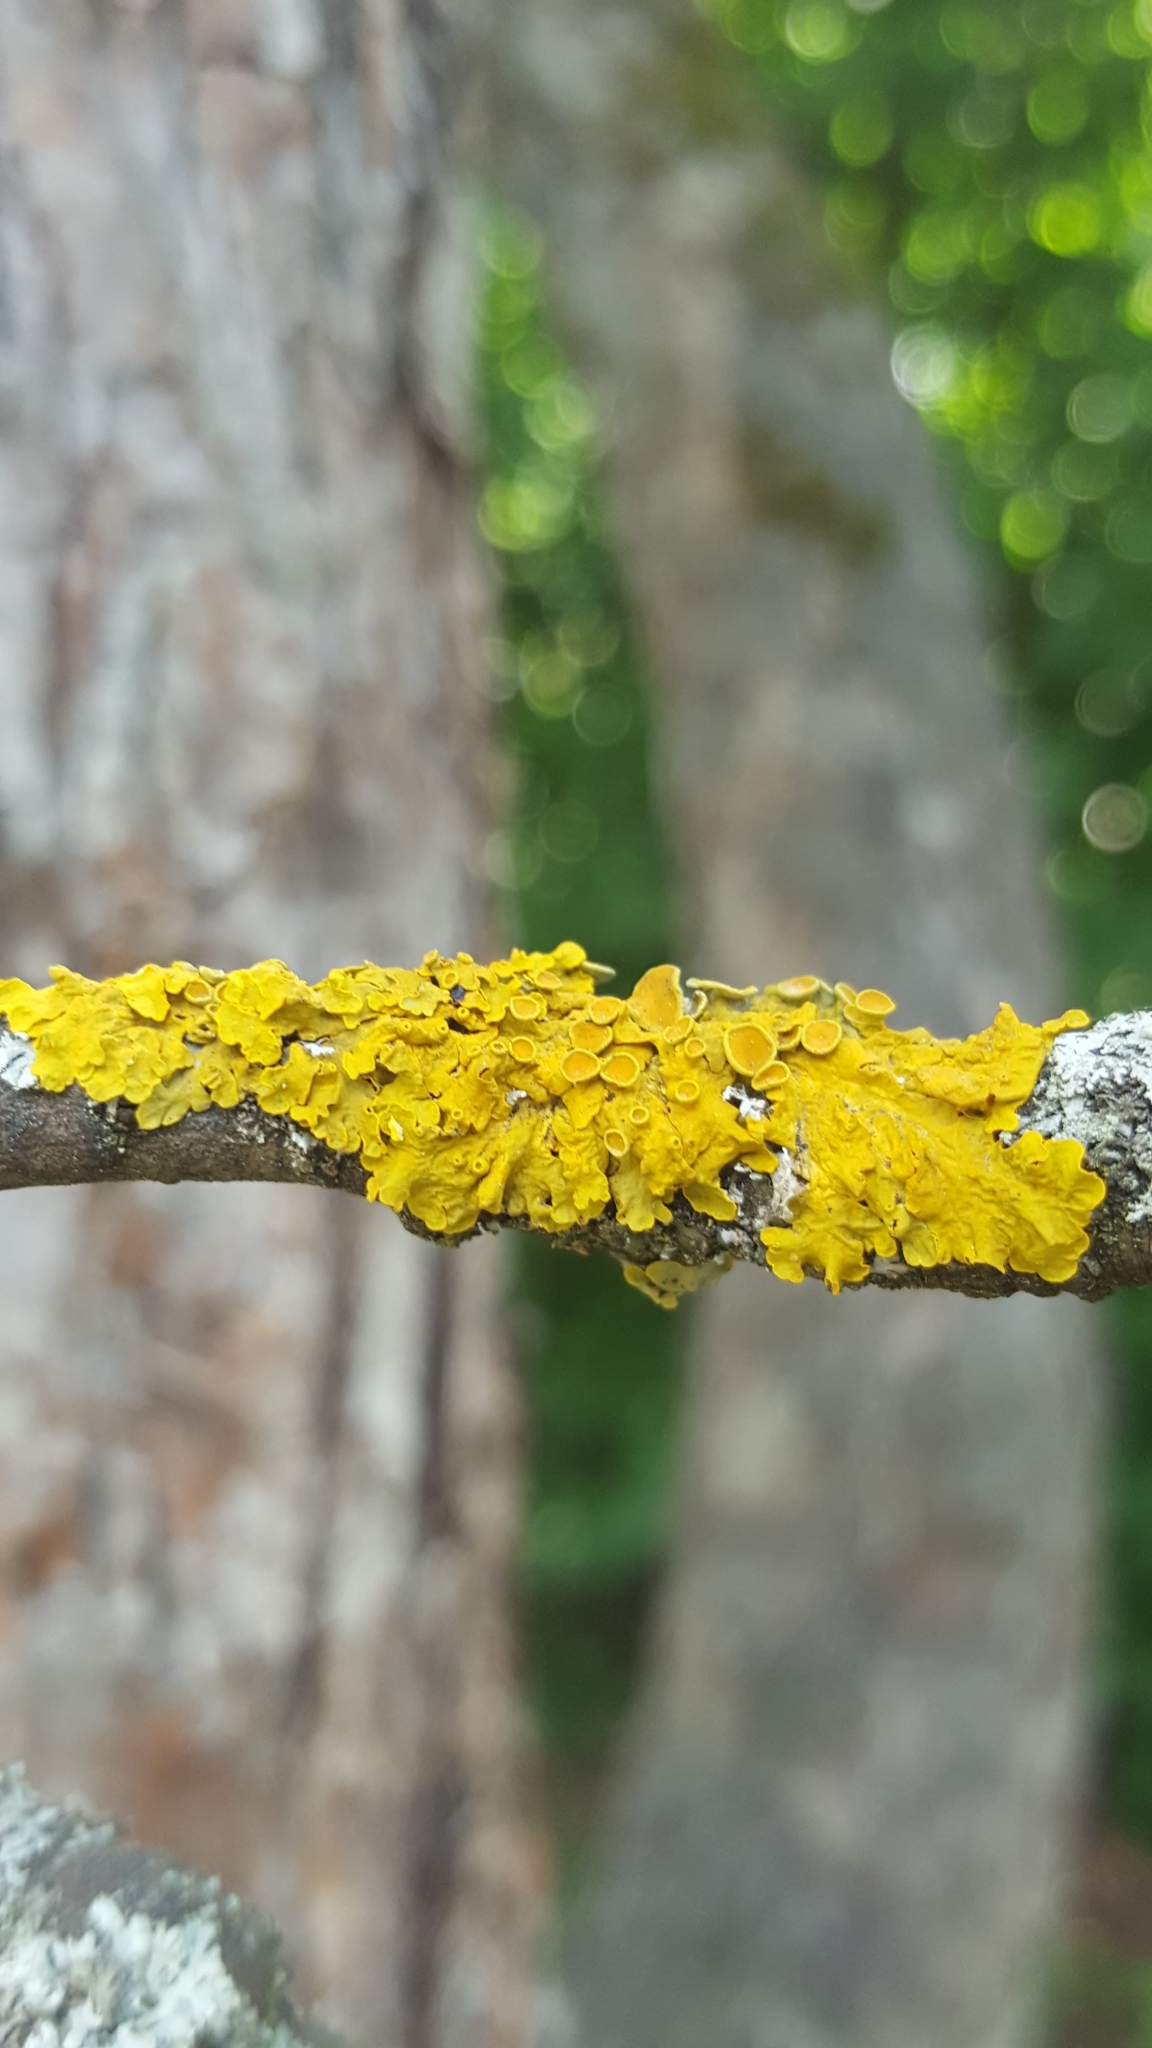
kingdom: Fungi
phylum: Ascomycota
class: Lecanoromycetes
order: Teloschistales
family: Teloschistaceae
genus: Xanthoria
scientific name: Xanthoria parietina
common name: Common orange lichen
